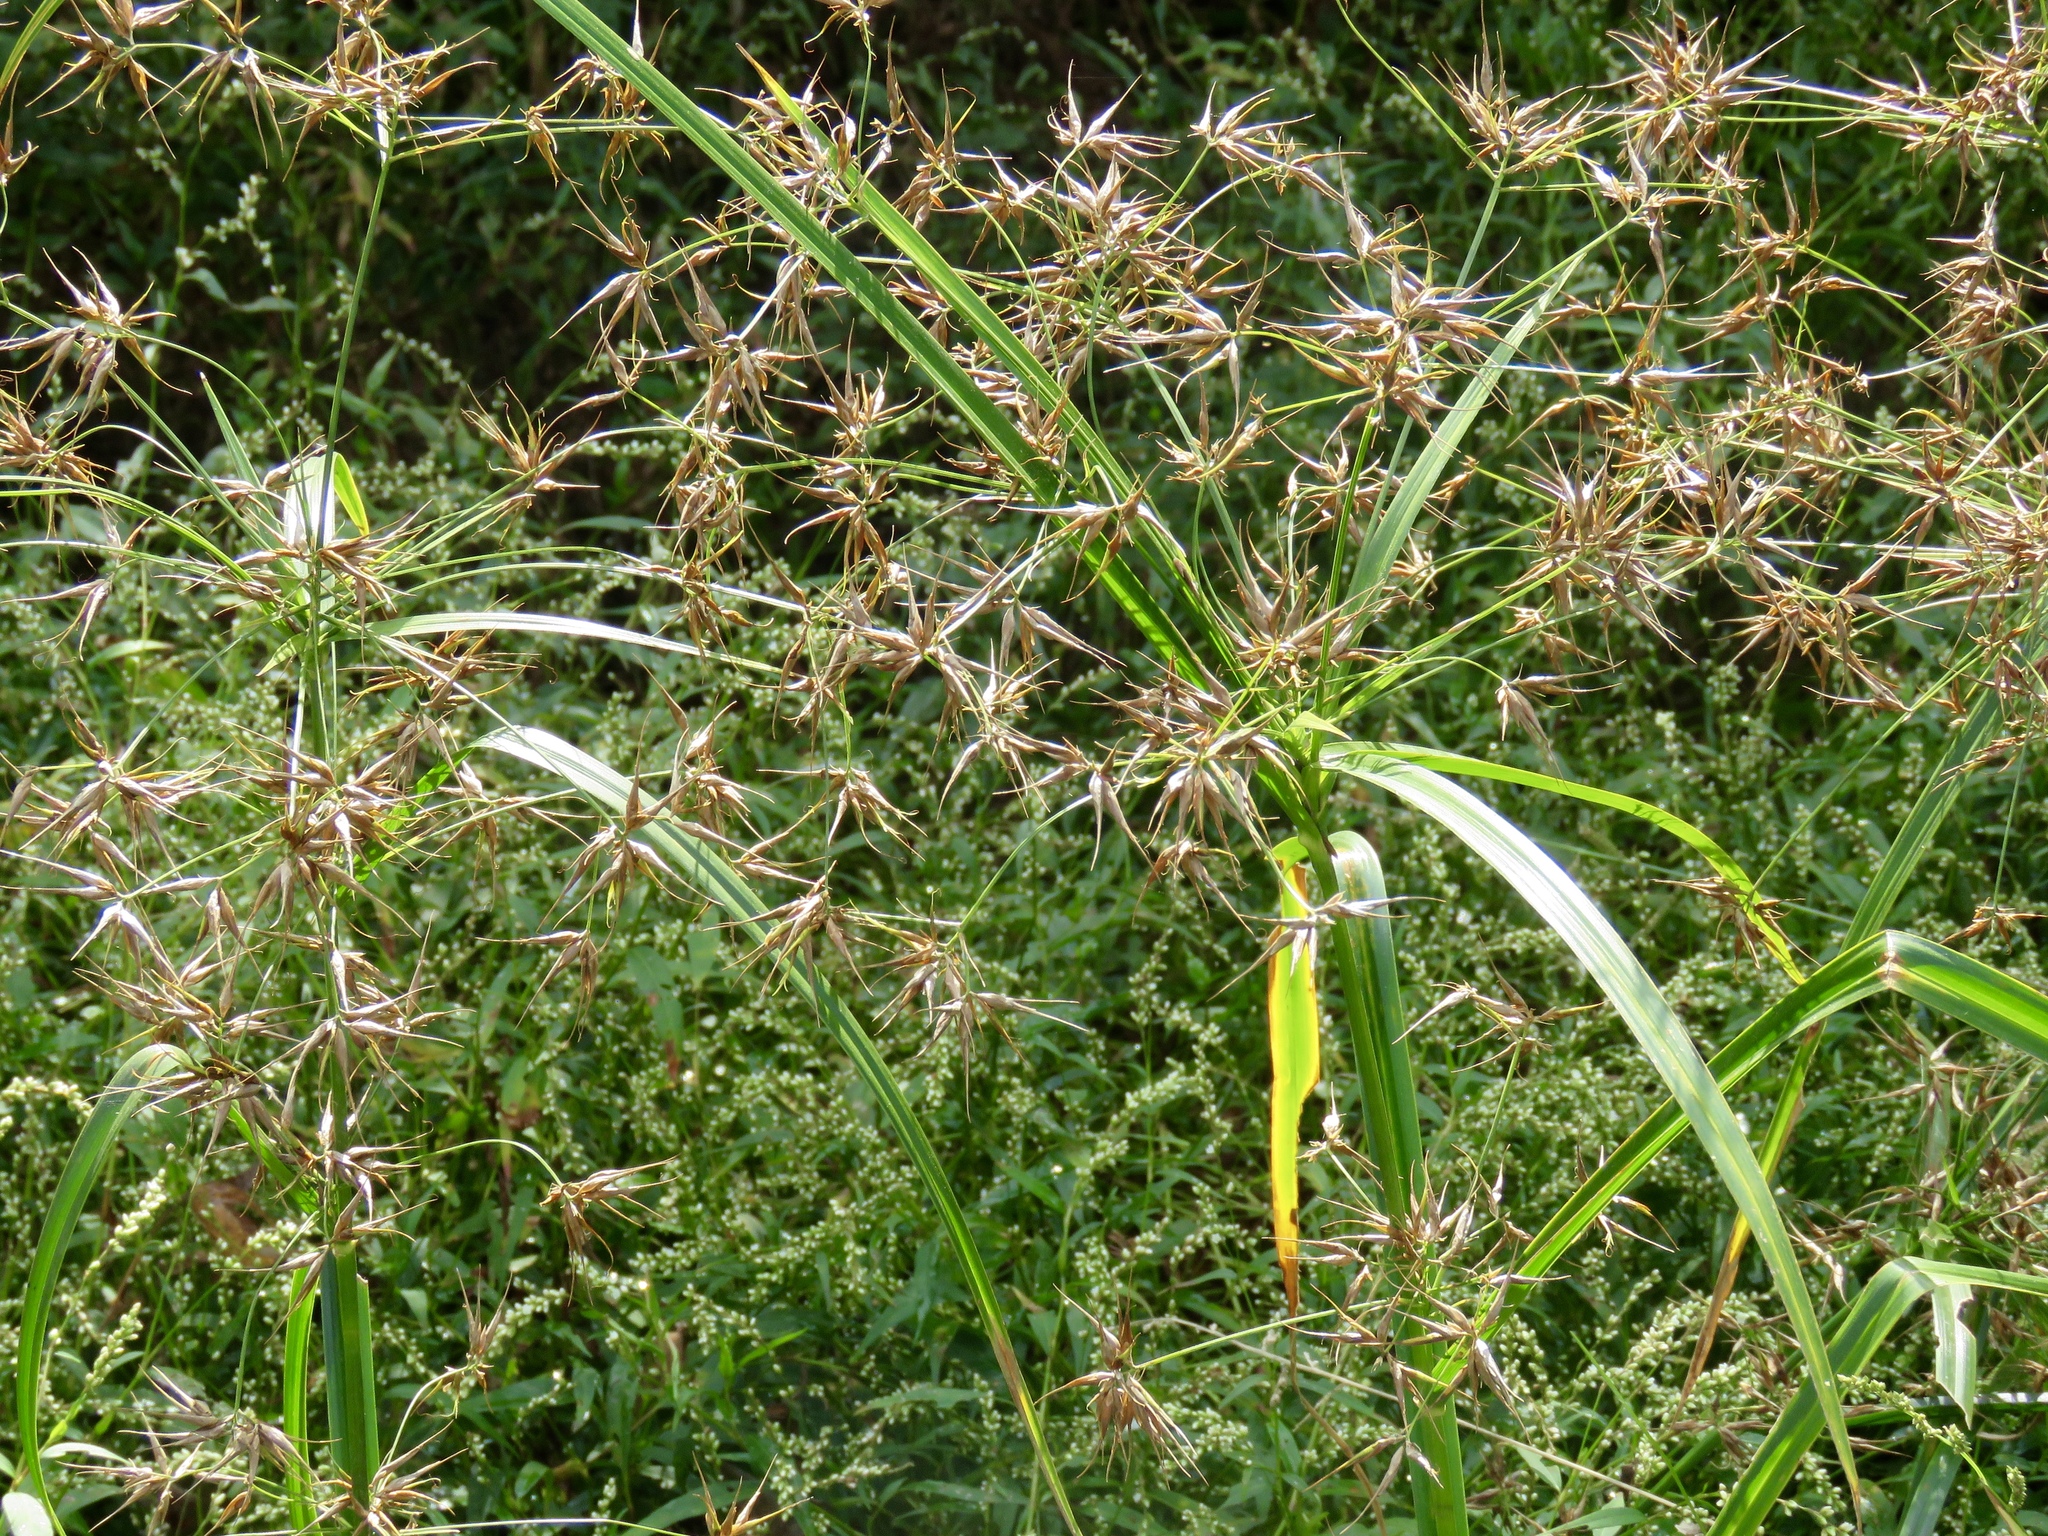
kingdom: Plantae
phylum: Tracheophyta
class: Liliopsida
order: Poales
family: Cyperaceae
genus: Rhynchospora
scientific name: Rhynchospora corniculata
